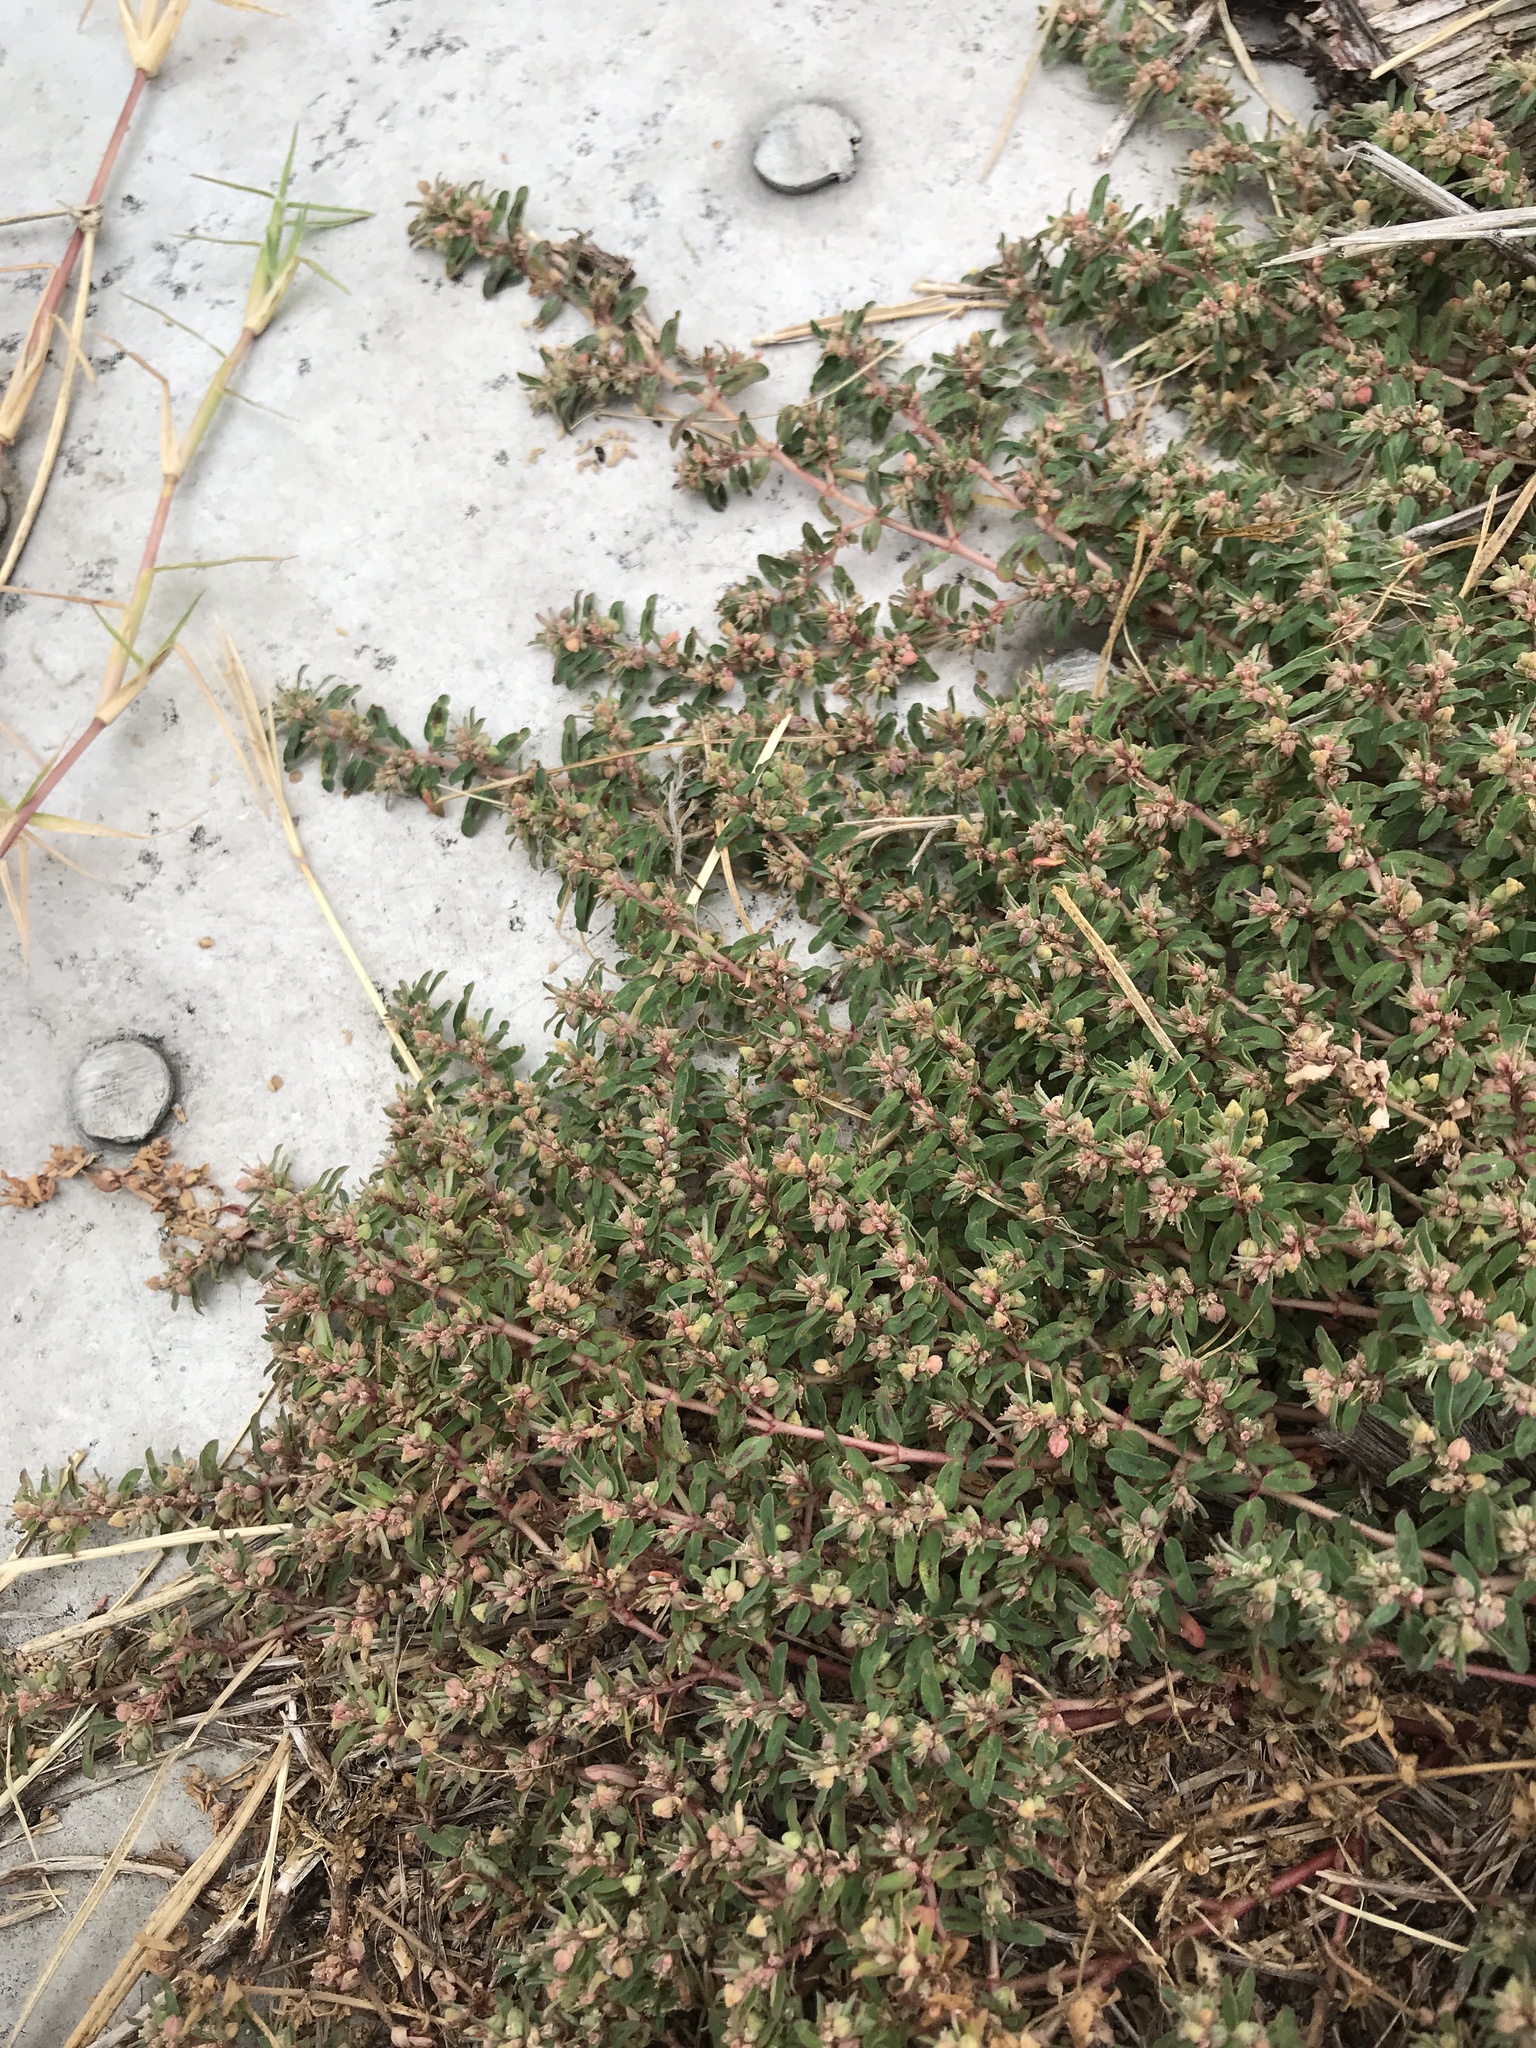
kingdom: Plantae
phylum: Tracheophyta
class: Magnoliopsida
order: Malpighiales
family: Euphorbiaceae
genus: Euphorbia
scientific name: Euphorbia maculata
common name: Spotted spurge
